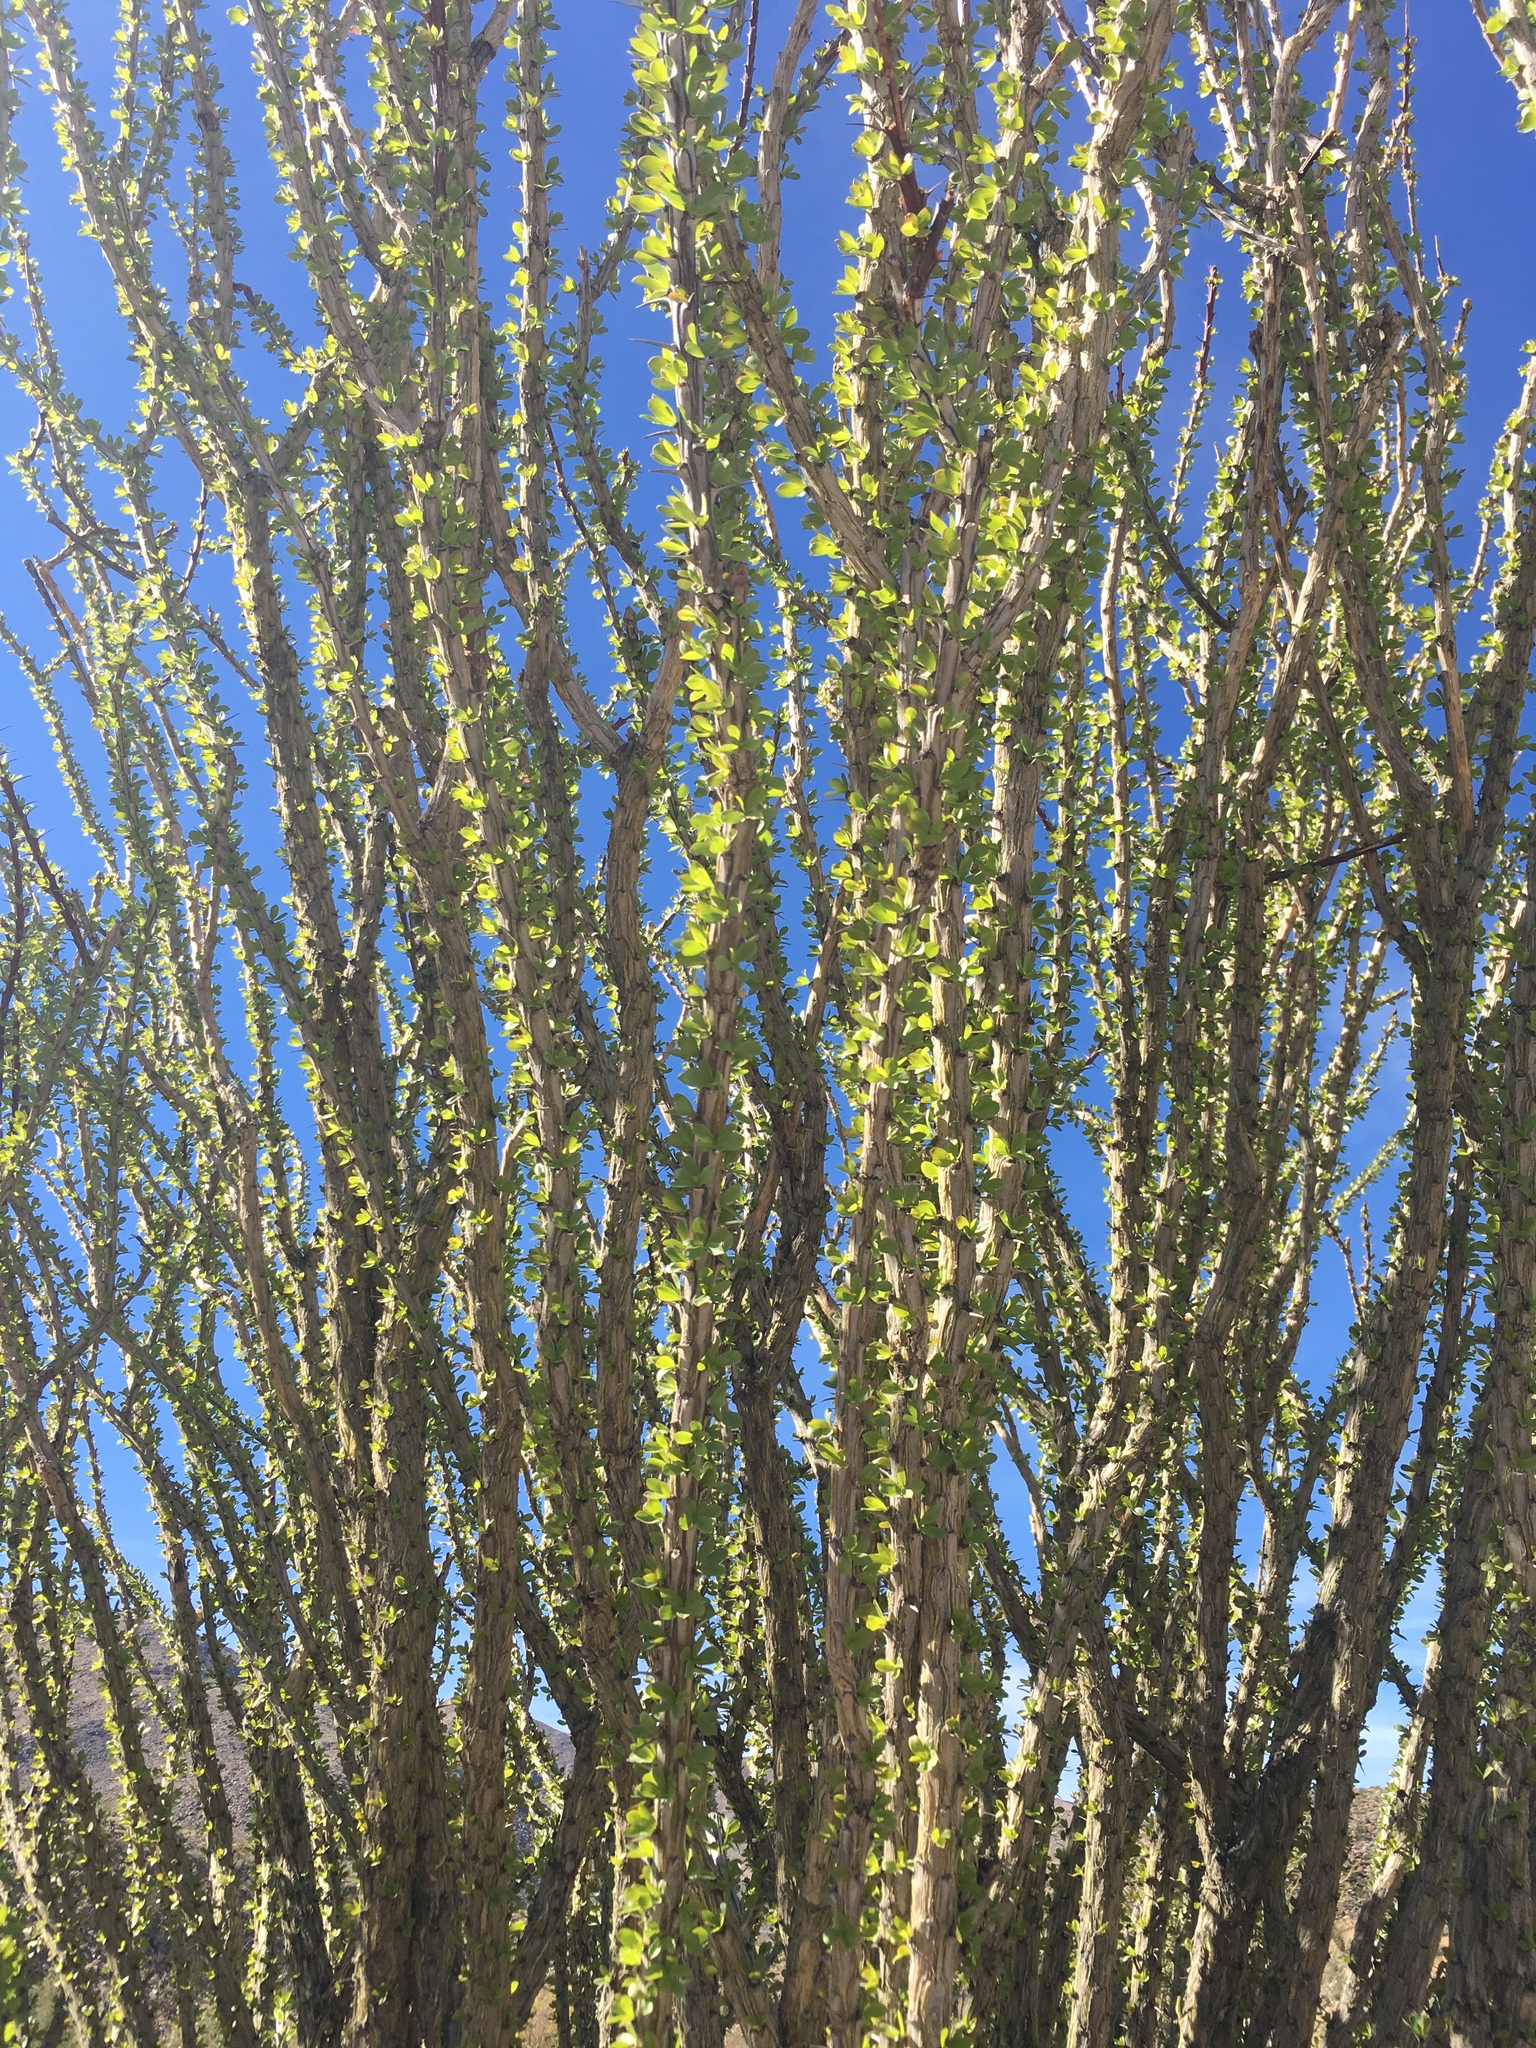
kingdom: Plantae
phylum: Tracheophyta
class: Magnoliopsida
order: Ericales
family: Fouquieriaceae
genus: Fouquieria
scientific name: Fouquieria splendens
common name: Vine-cactus
